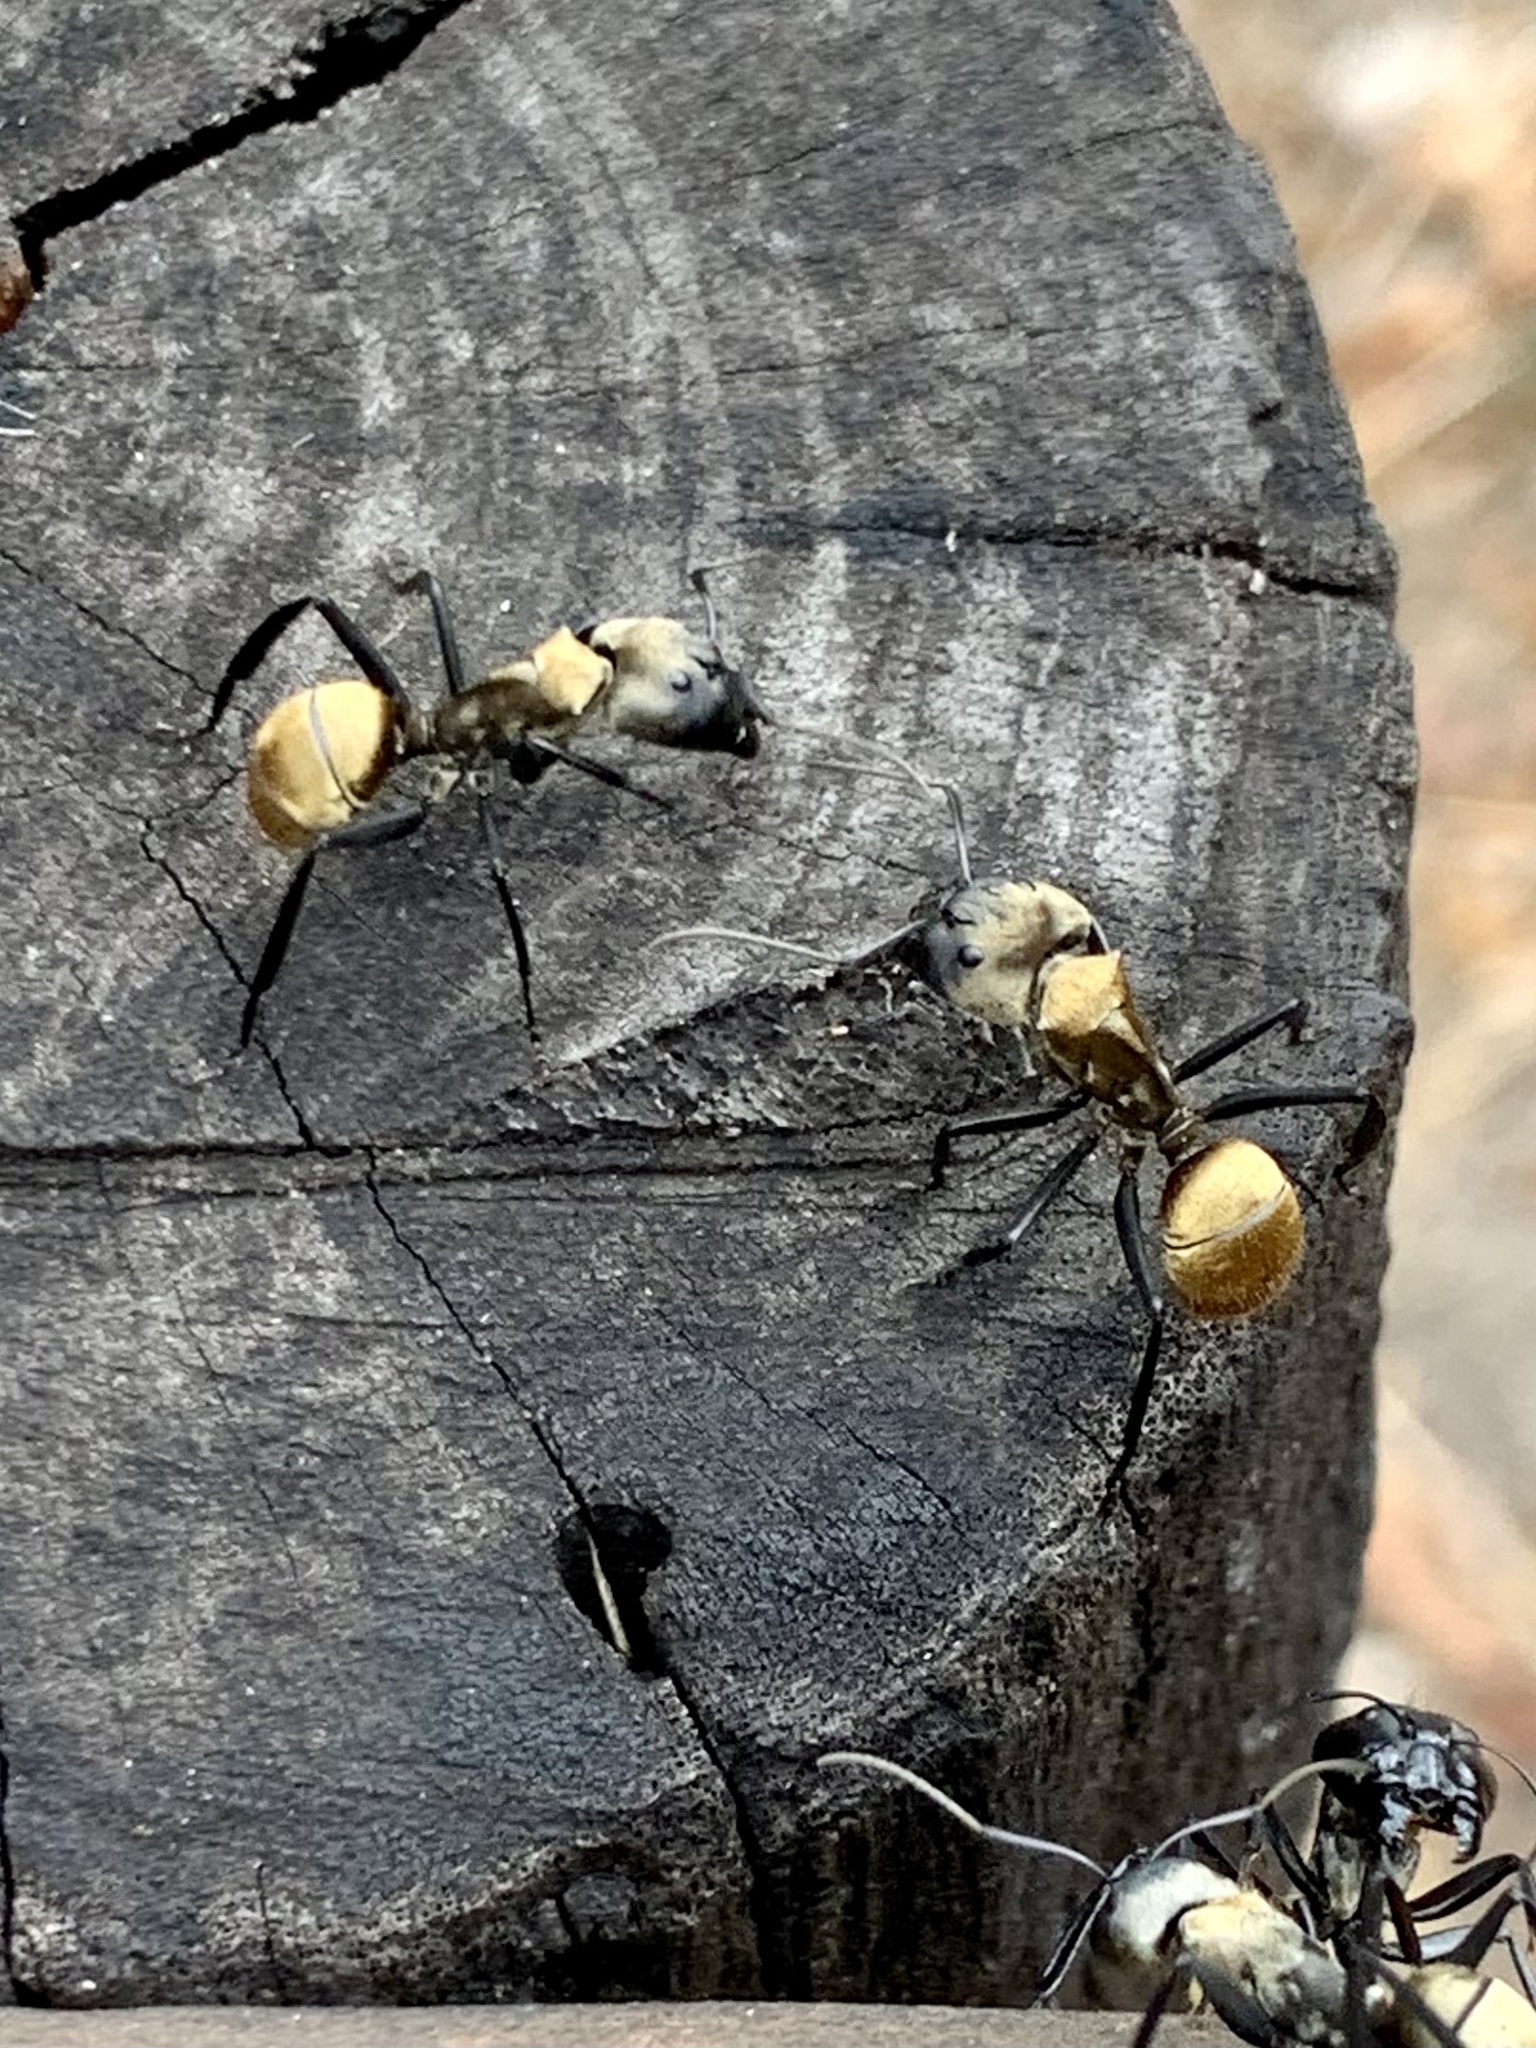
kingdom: Animalia
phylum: Arthropoda
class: Insecta
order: Hymenoptera
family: Formicidae
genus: Camponotus
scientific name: Camponotus sericeiventris
